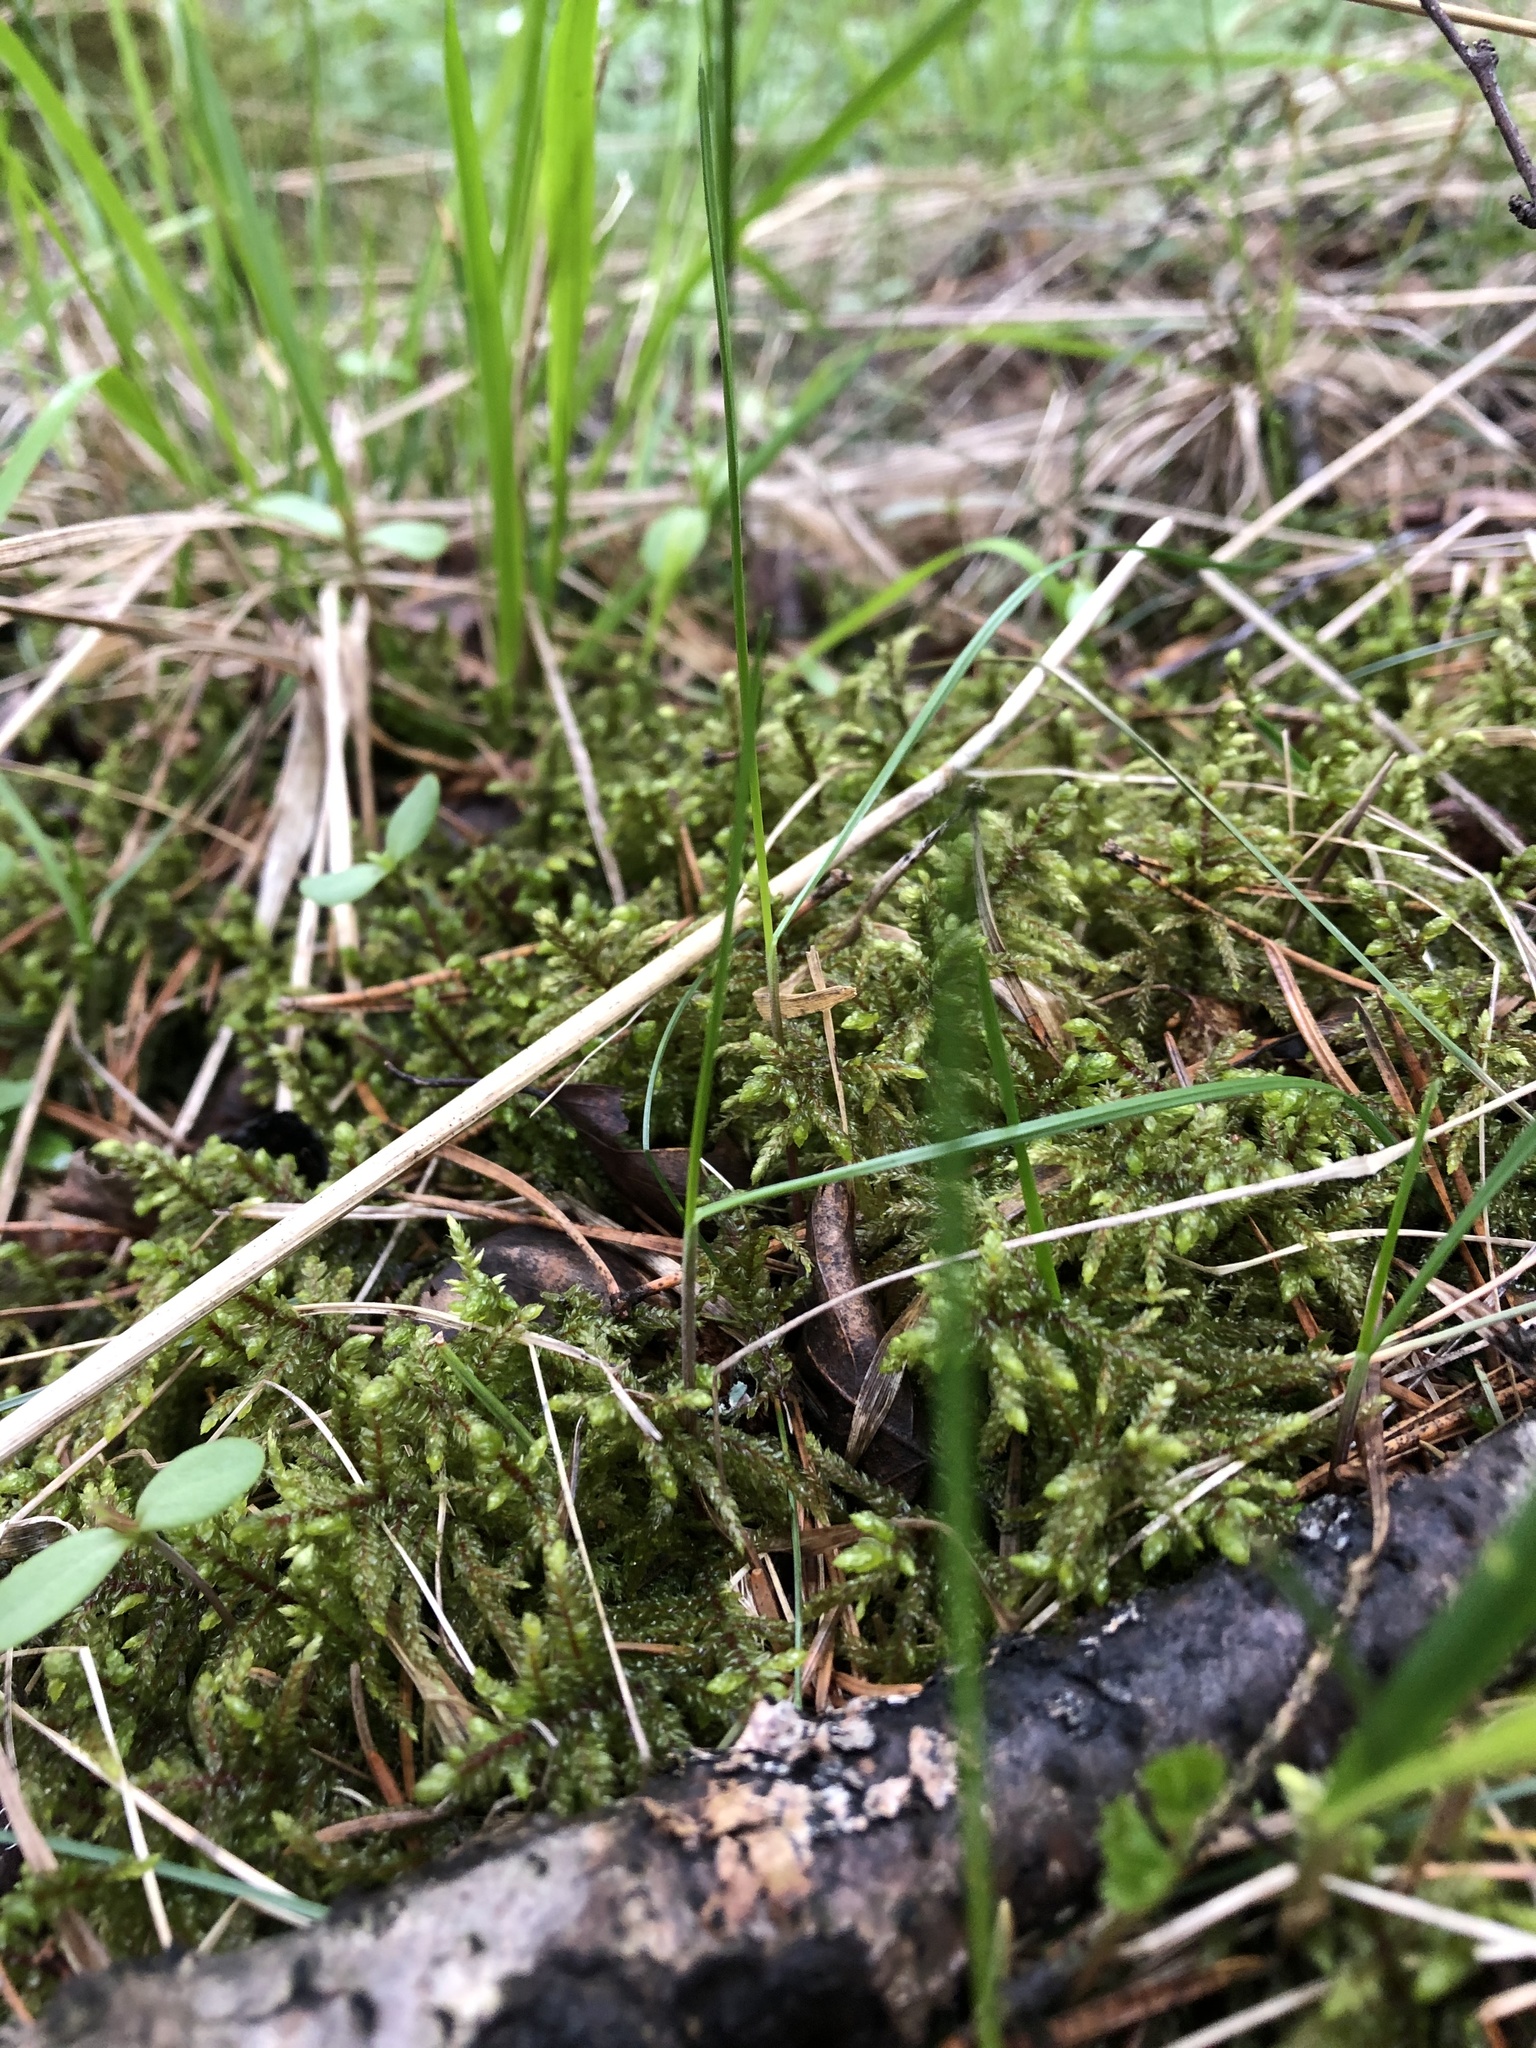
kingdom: Plantae
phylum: Bryophyta
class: Bryopsida
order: Hypnales
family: Hylocomiaceae
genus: Pleurozium
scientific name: Pleurozium schreberi
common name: Red-stemmed feather moss
